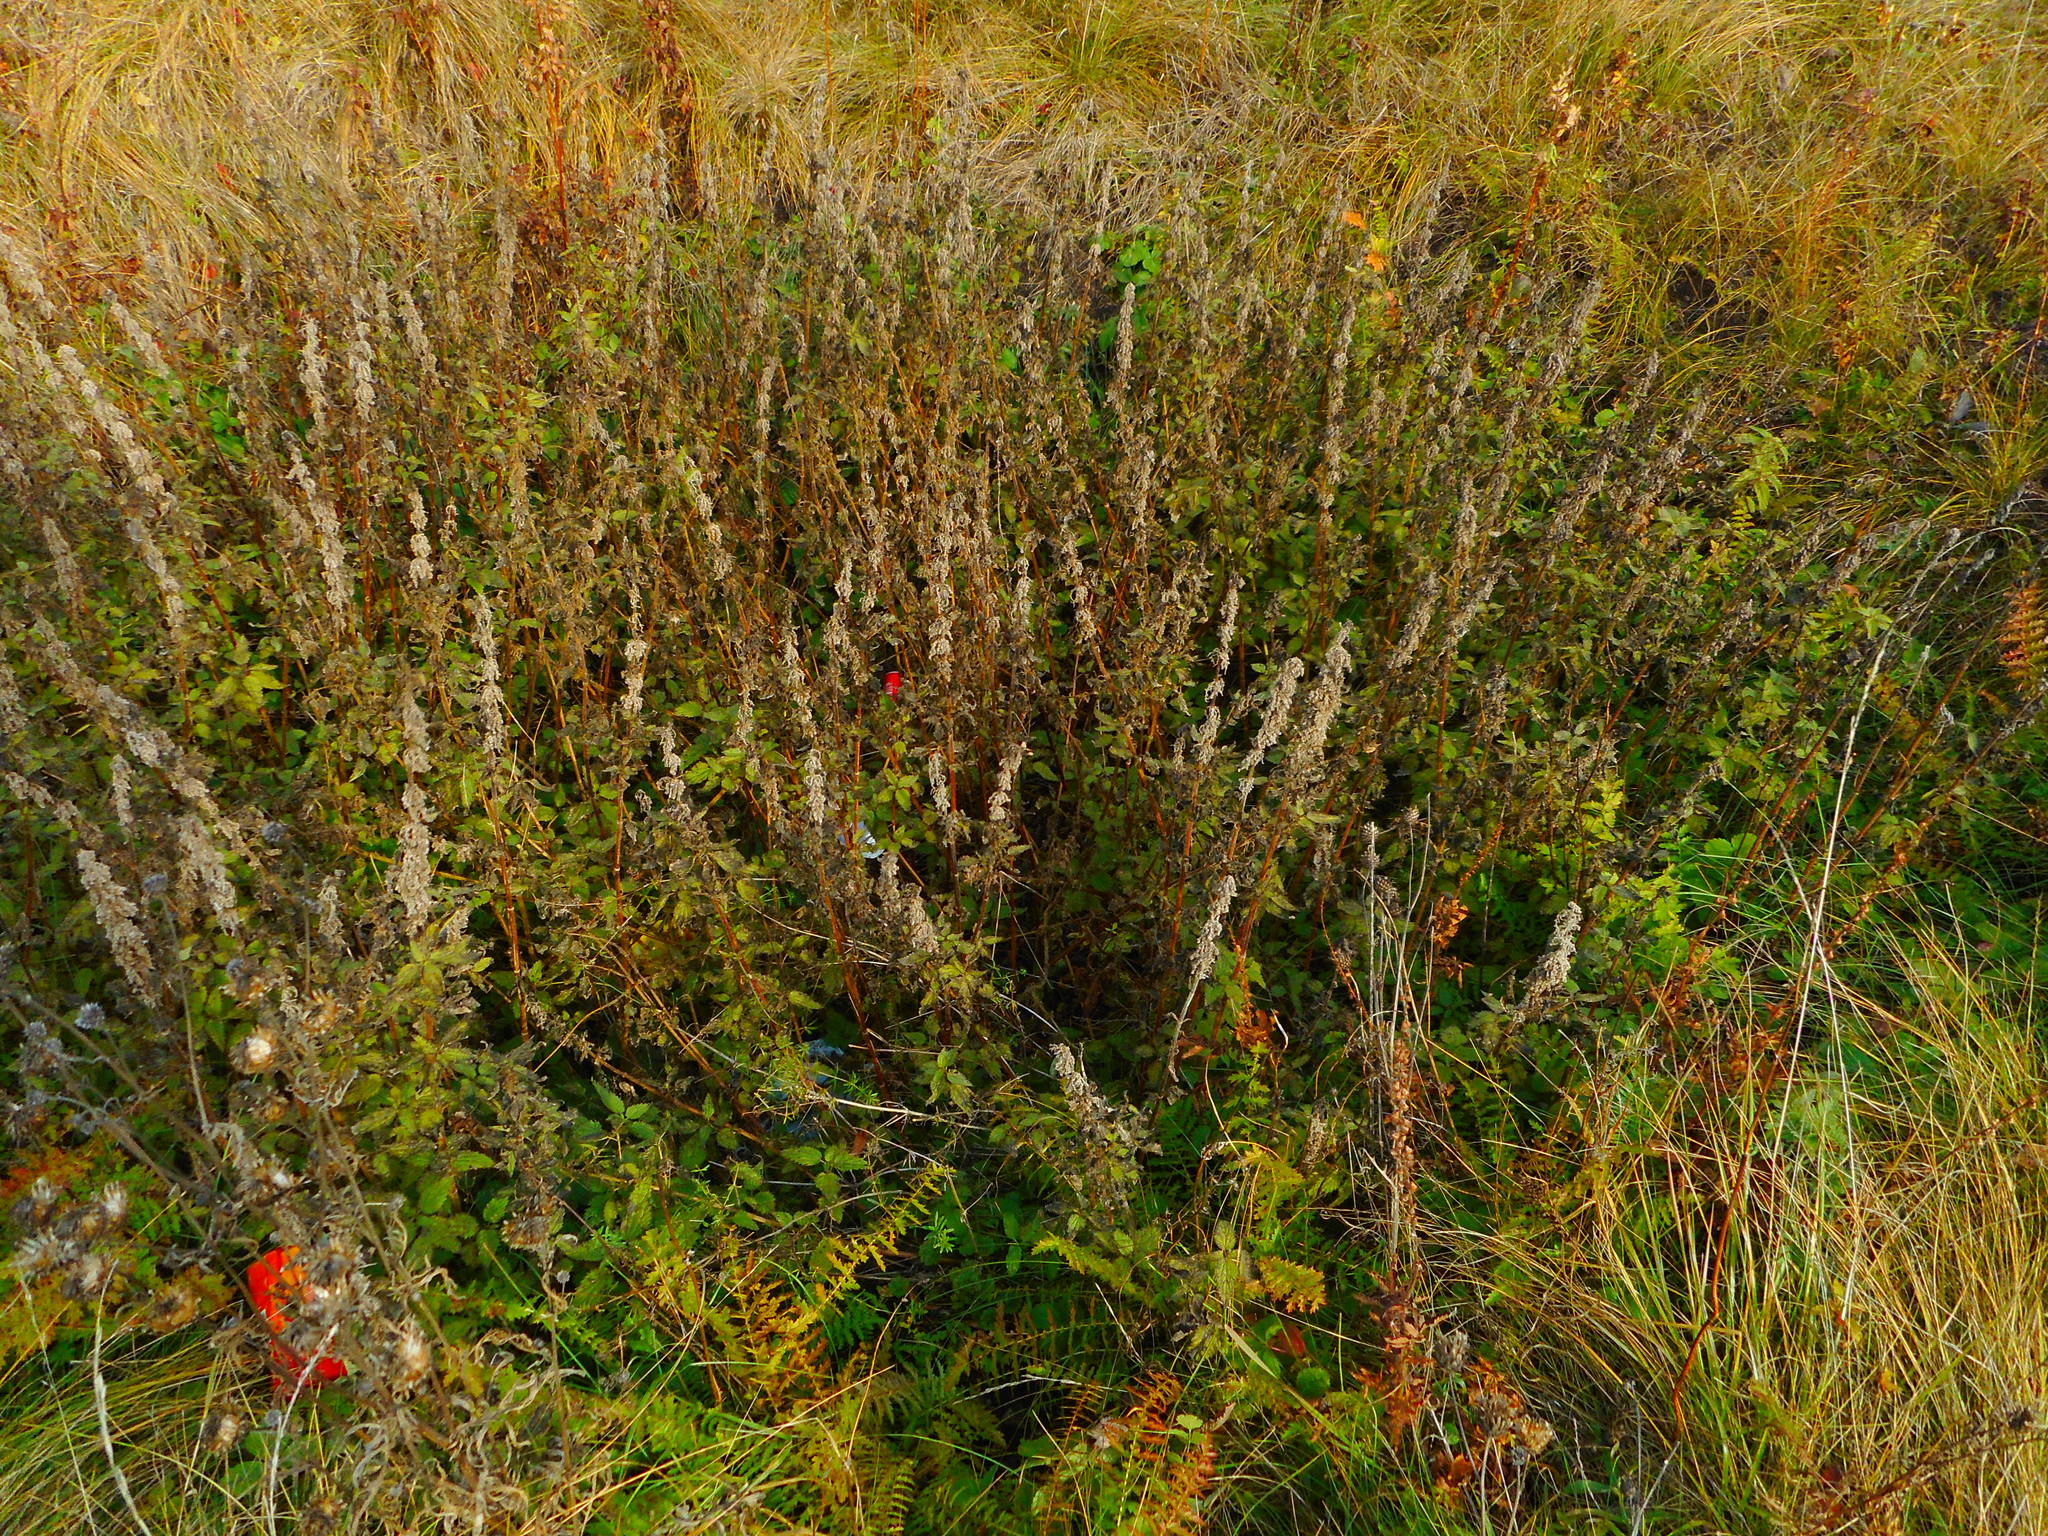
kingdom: Plantae
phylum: Tracheophyta
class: Magnoliopsida
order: Rosales
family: Urticaceae
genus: Urtica
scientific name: Urtica dioica
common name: Common nettle
